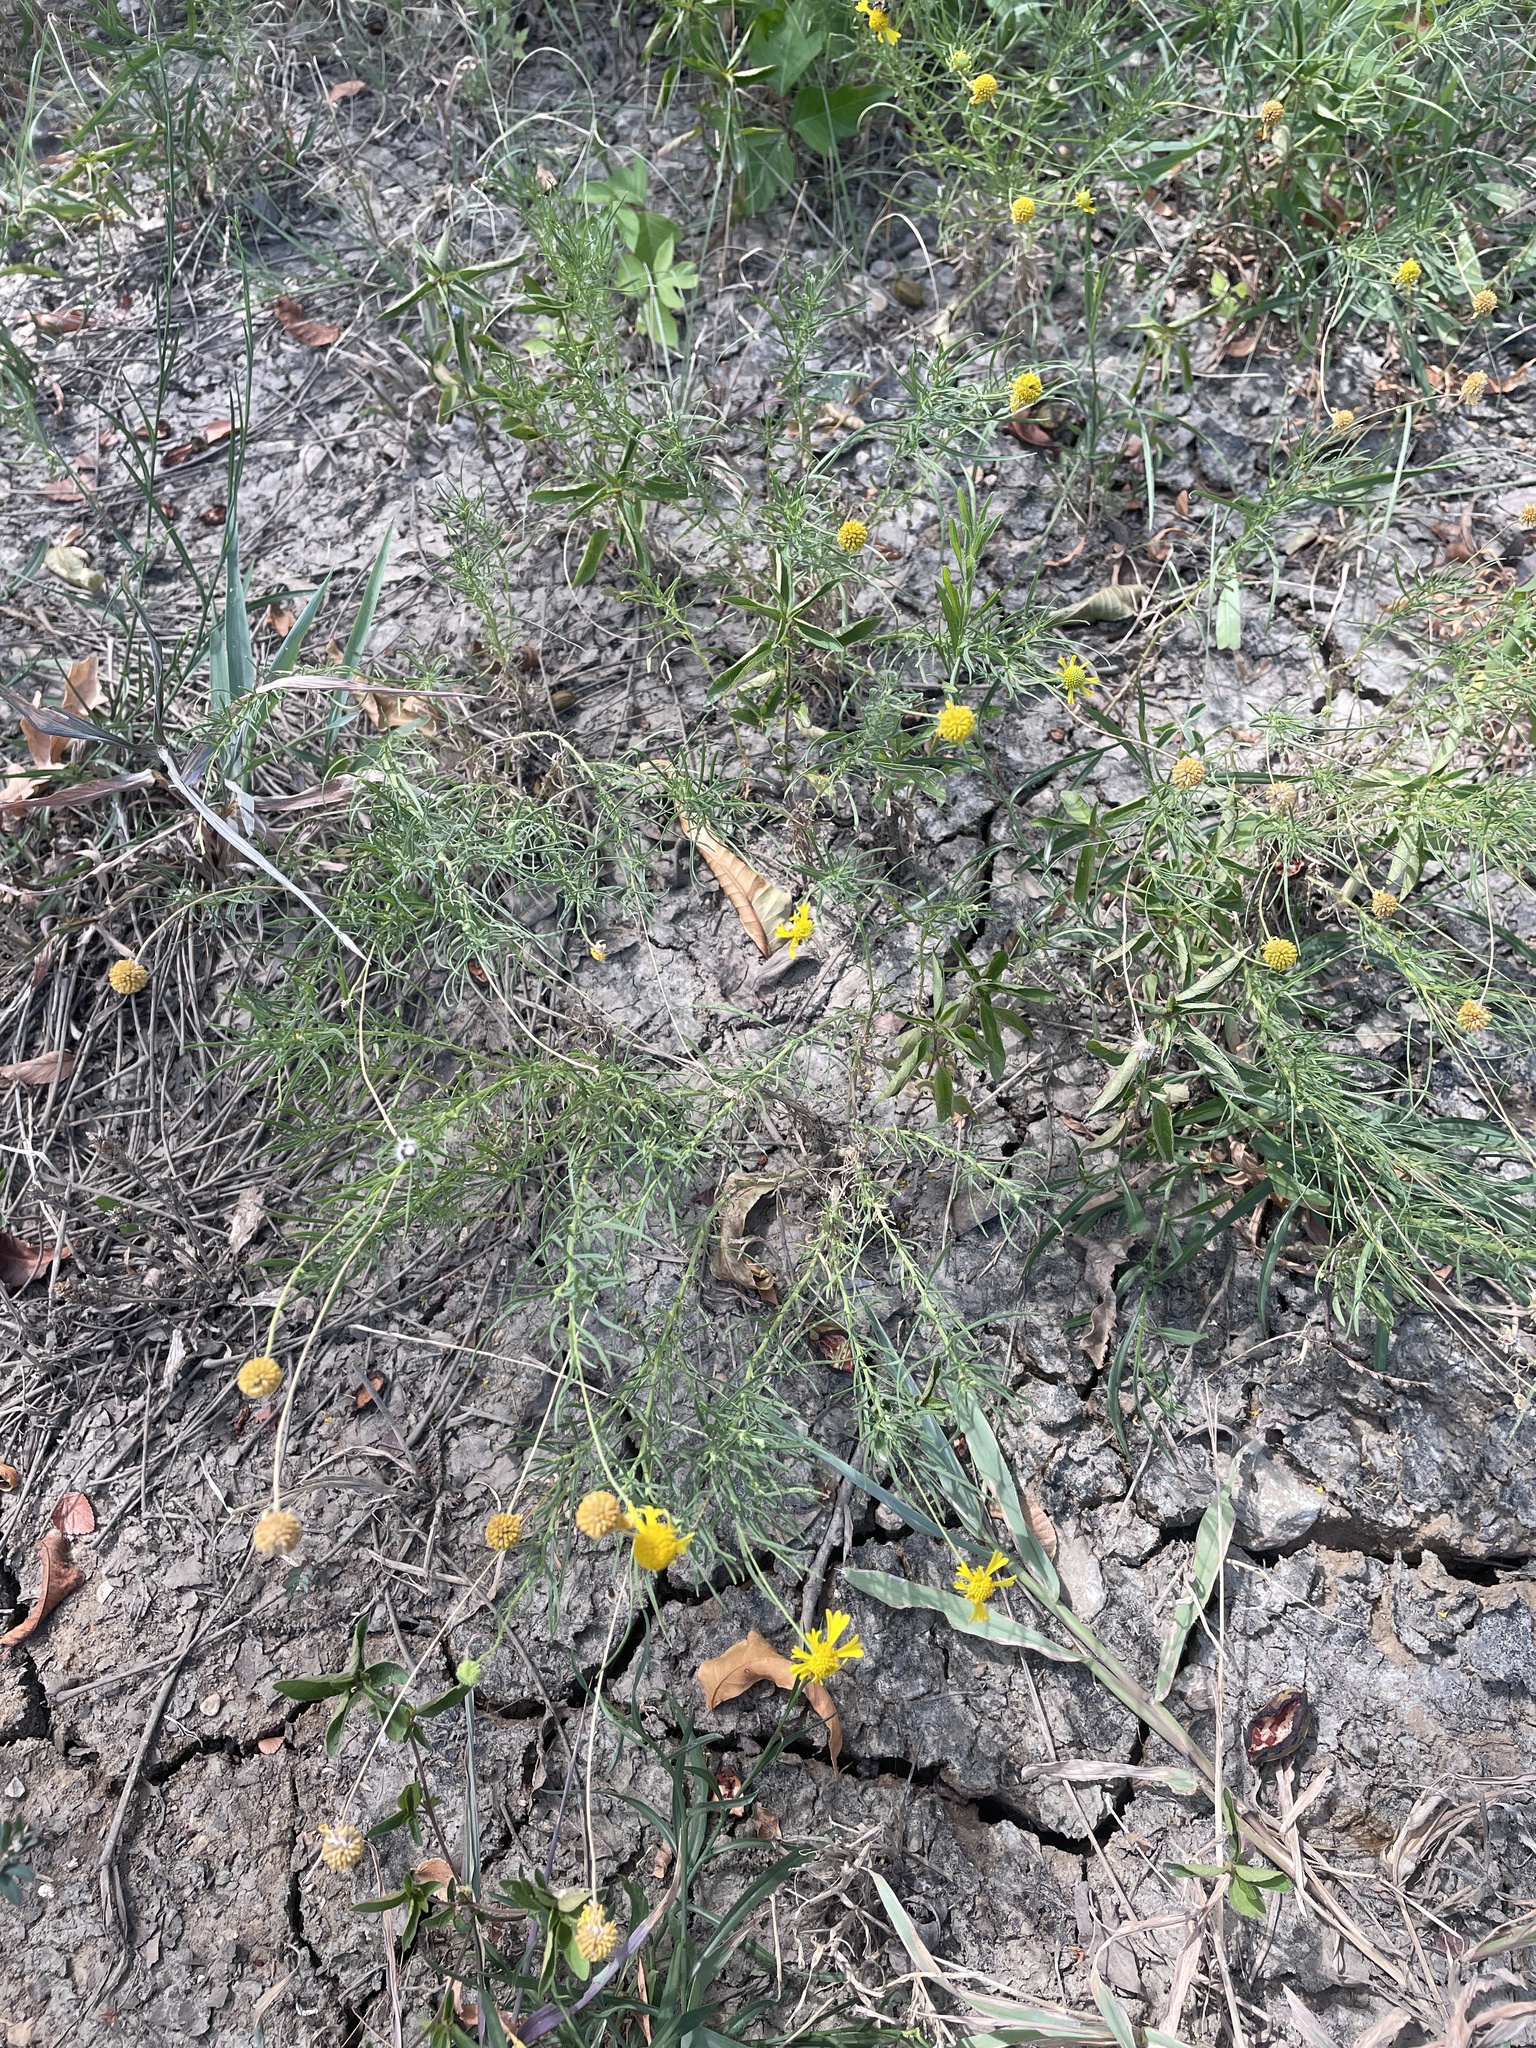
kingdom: Plantae
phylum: Tracheophyta
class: Magnoliopsida
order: Asterales
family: Asteraceae
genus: Helenium
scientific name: Helenium amarum
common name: Bitter sneezeweed
